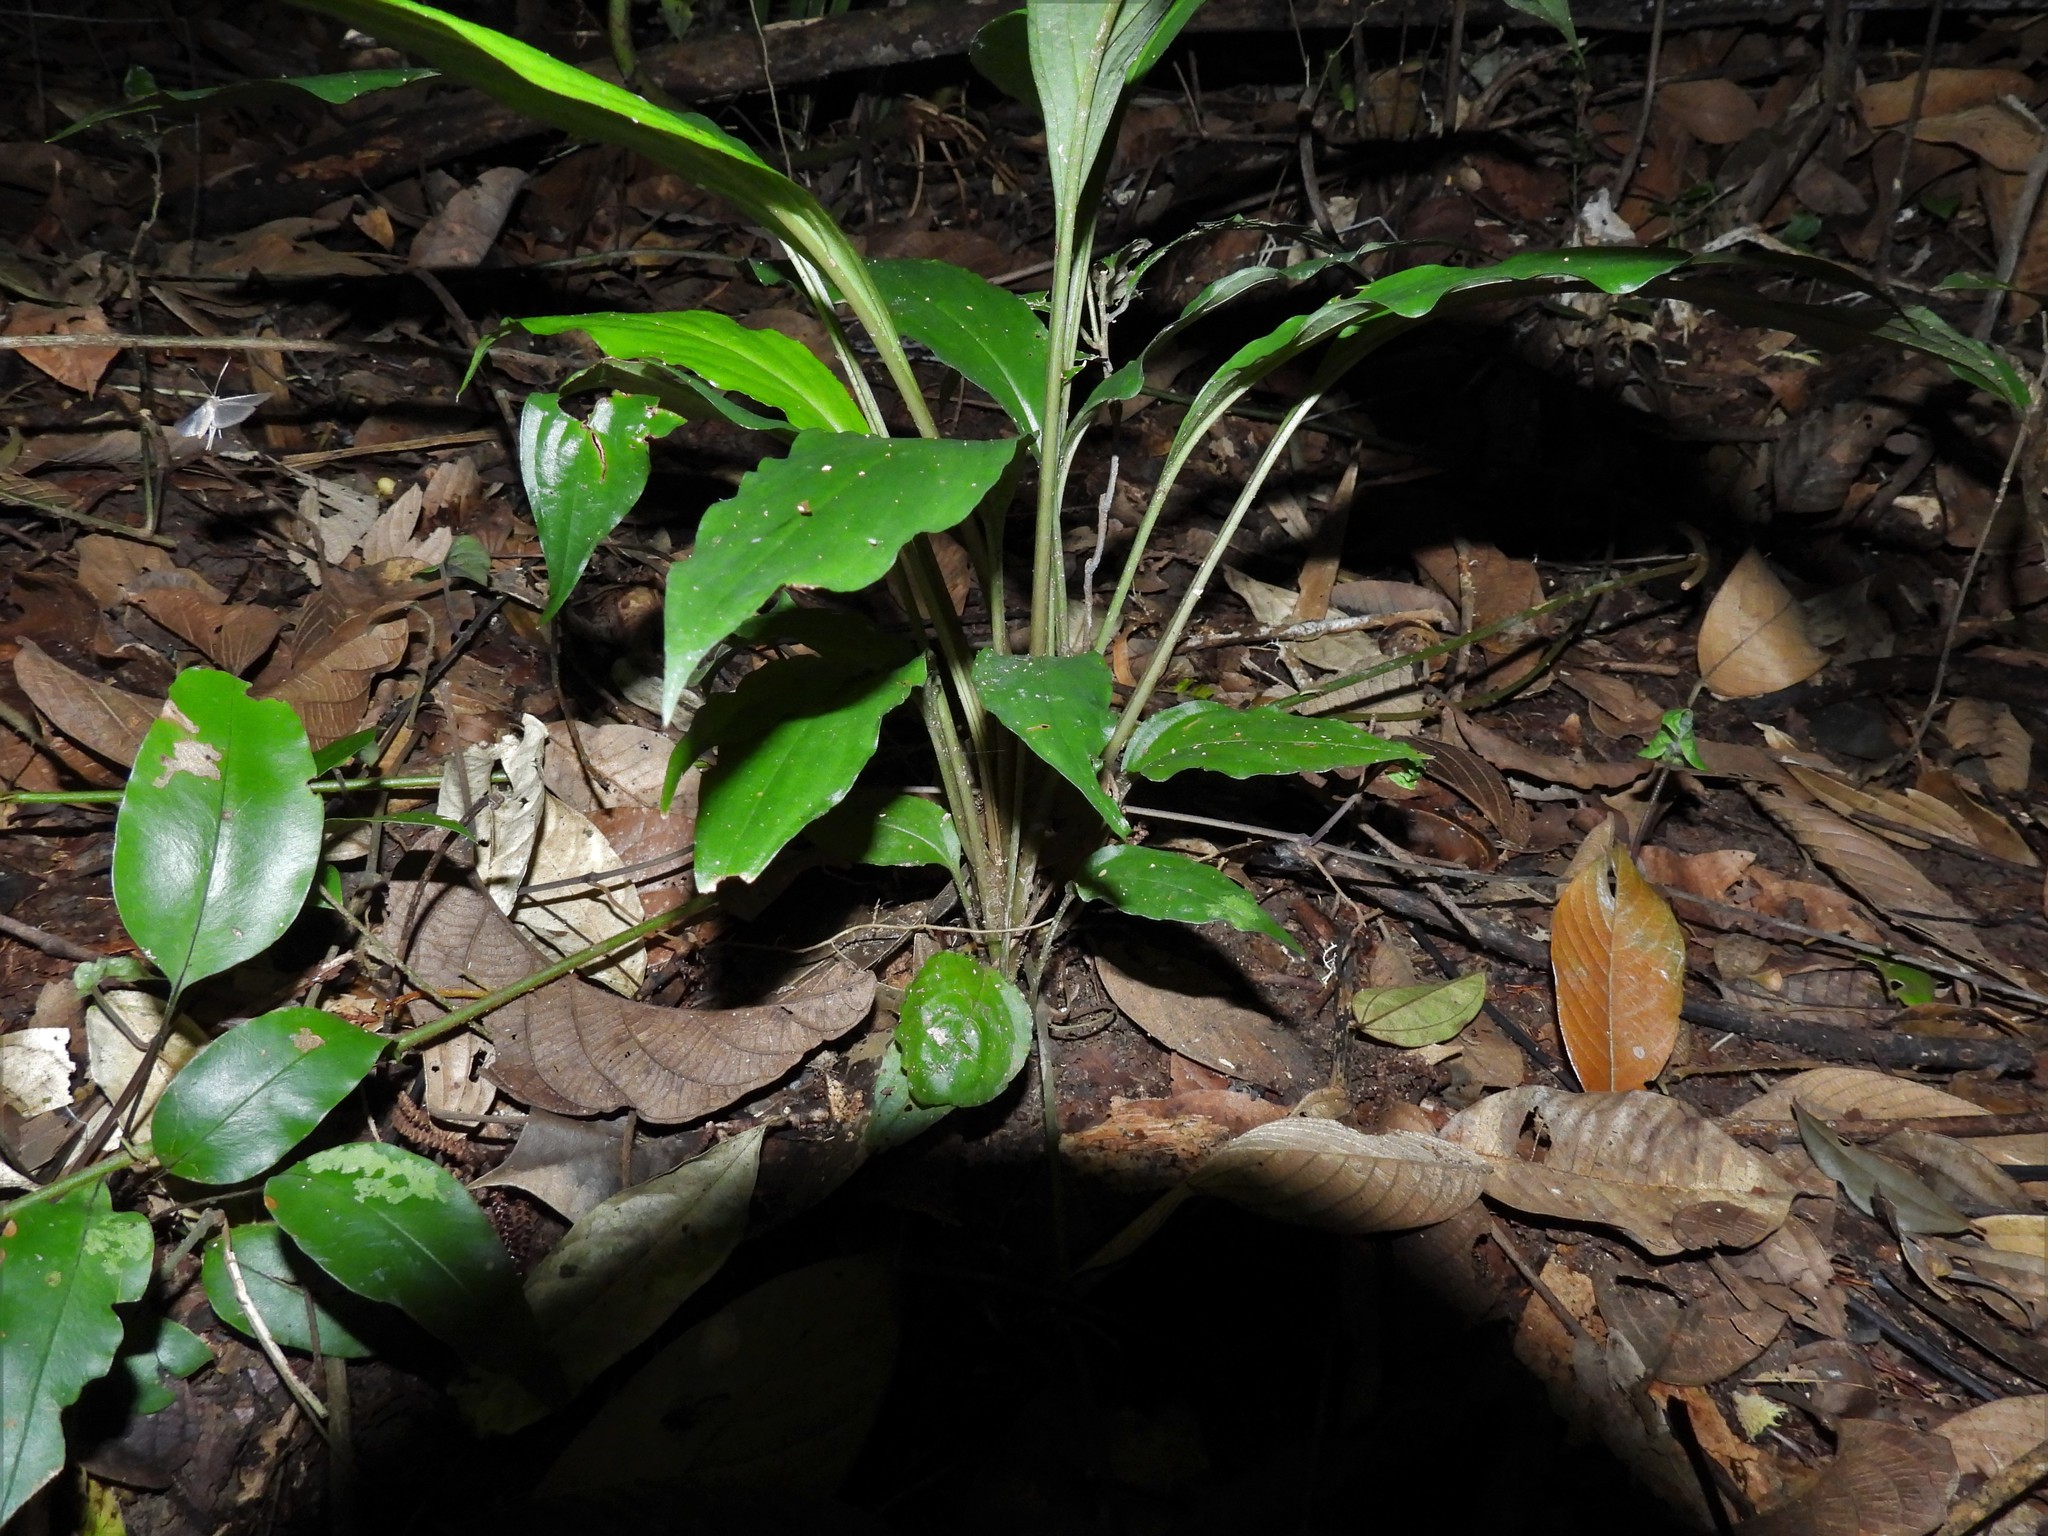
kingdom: Plantae
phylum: Tracheophyta
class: Liliopsida
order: Dioscoreales
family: Dioscoreaceae
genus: Tacca
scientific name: Tacca cristata
